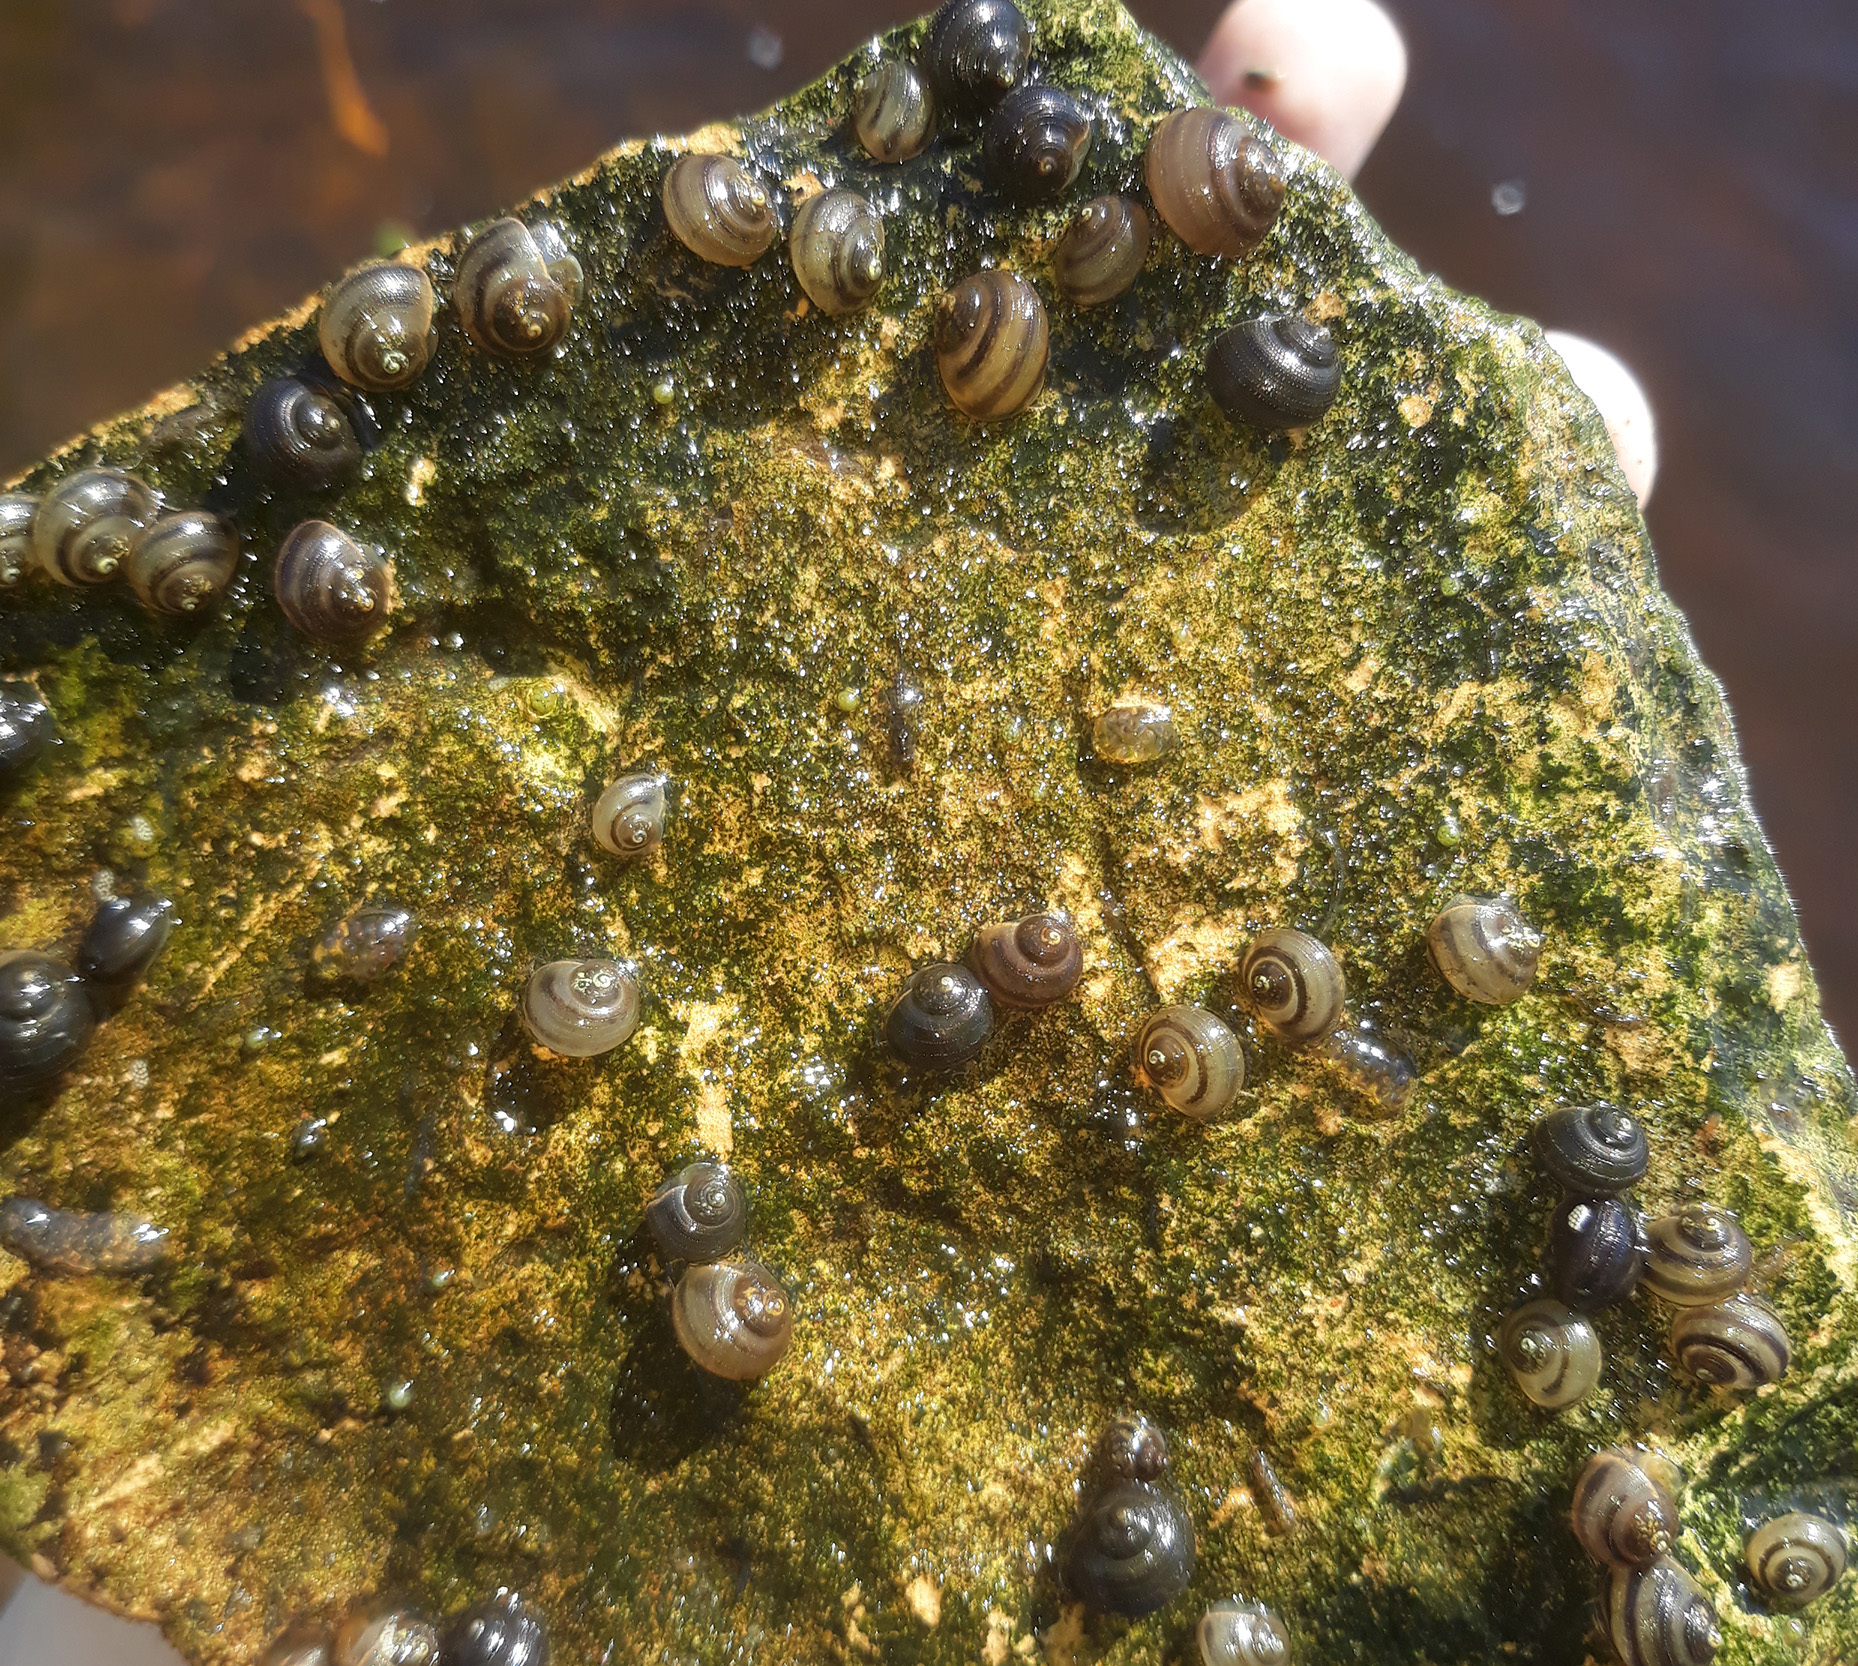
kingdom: Animalia
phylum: Mollusca
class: Gastropoda
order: Architaenioglossa
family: Viviparidae
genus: Viviparus
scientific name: Viviparus viviparus
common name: River snail
